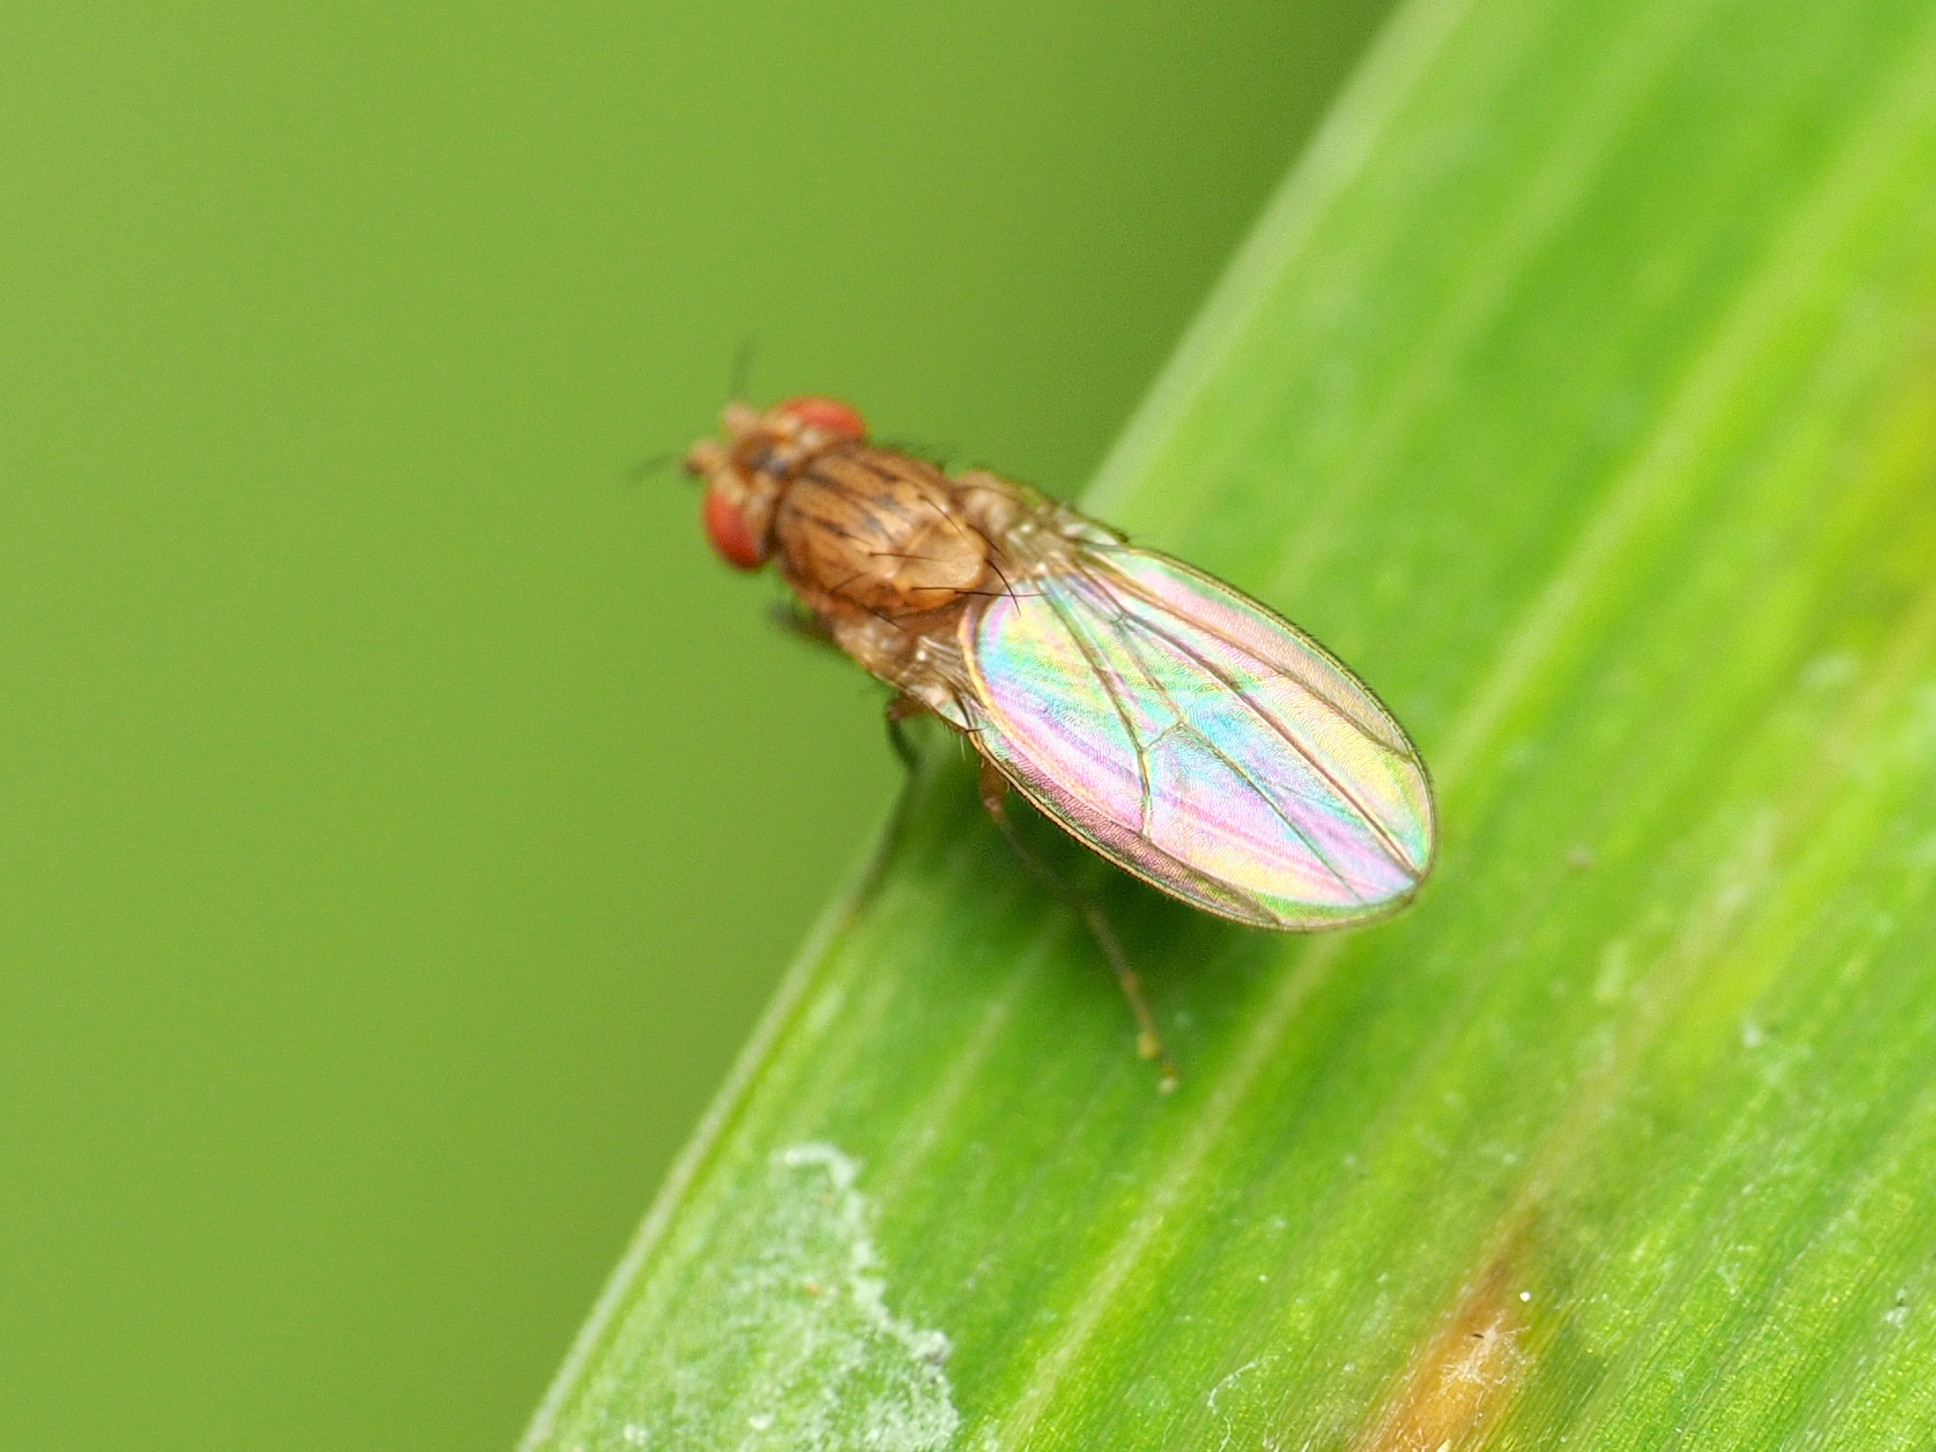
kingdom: Animalia
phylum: Arthropoda
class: Insecta
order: Diptera
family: Drosophilidae
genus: Drosophila
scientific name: Drosophila busckii
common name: Pomace fly
